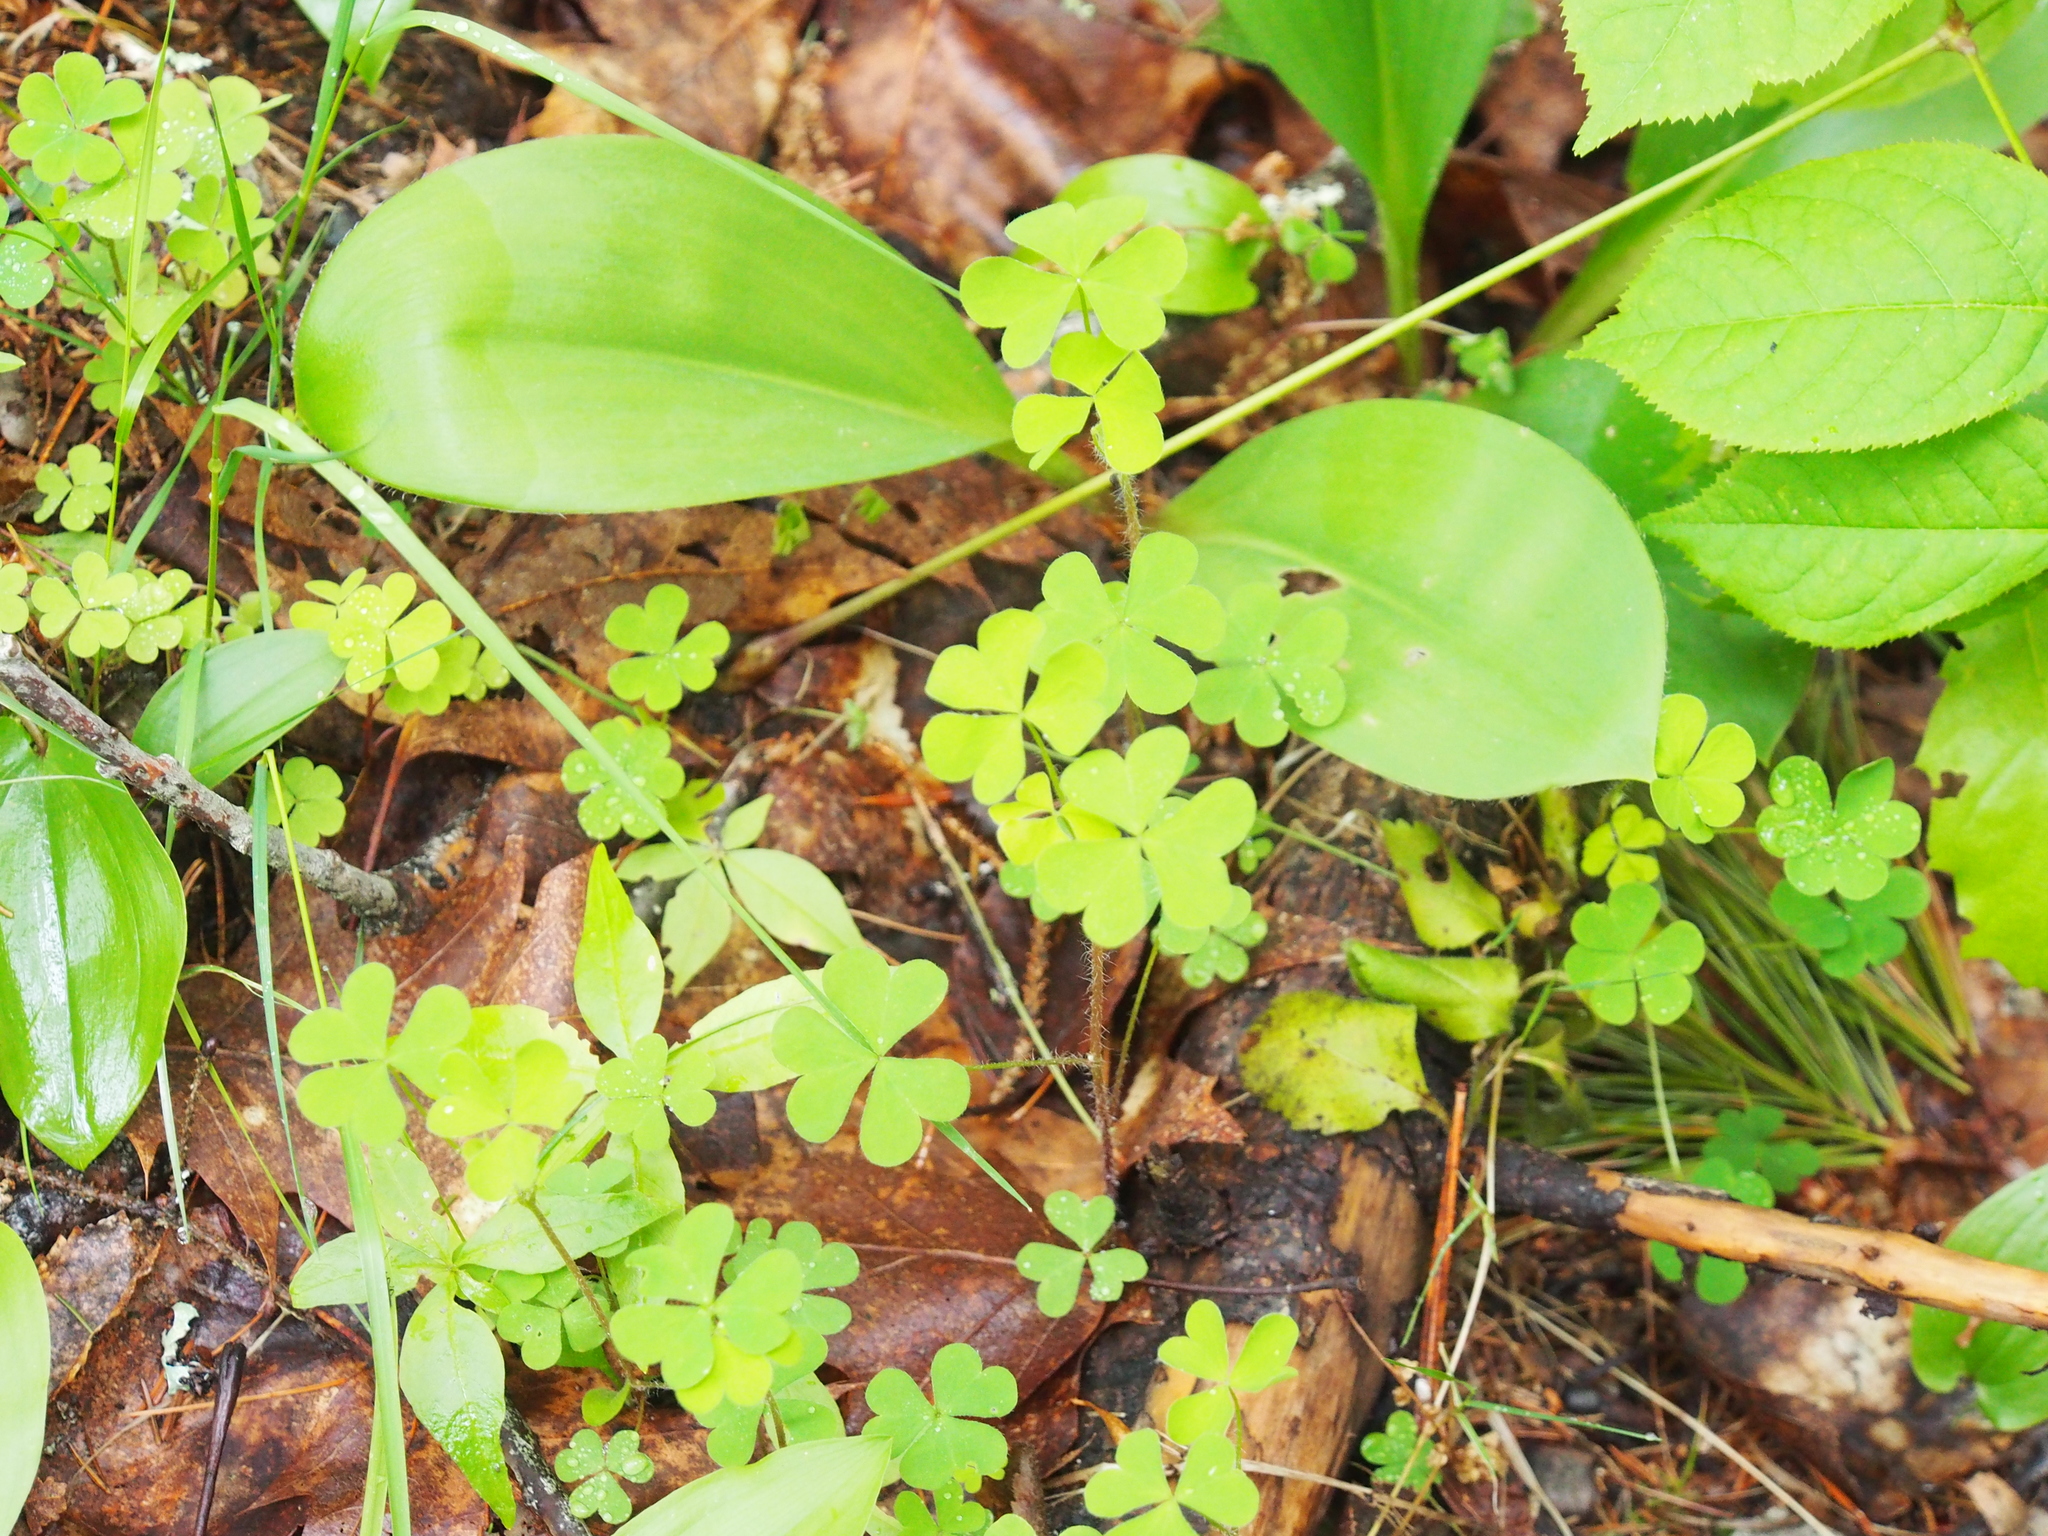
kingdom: Plantae
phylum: Tracheophyta
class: Magnoliopsida
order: Oxalidales
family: Oxalidaceae
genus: Oxalis
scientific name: Oxalis stricta
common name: Upright yellow-sorrel
